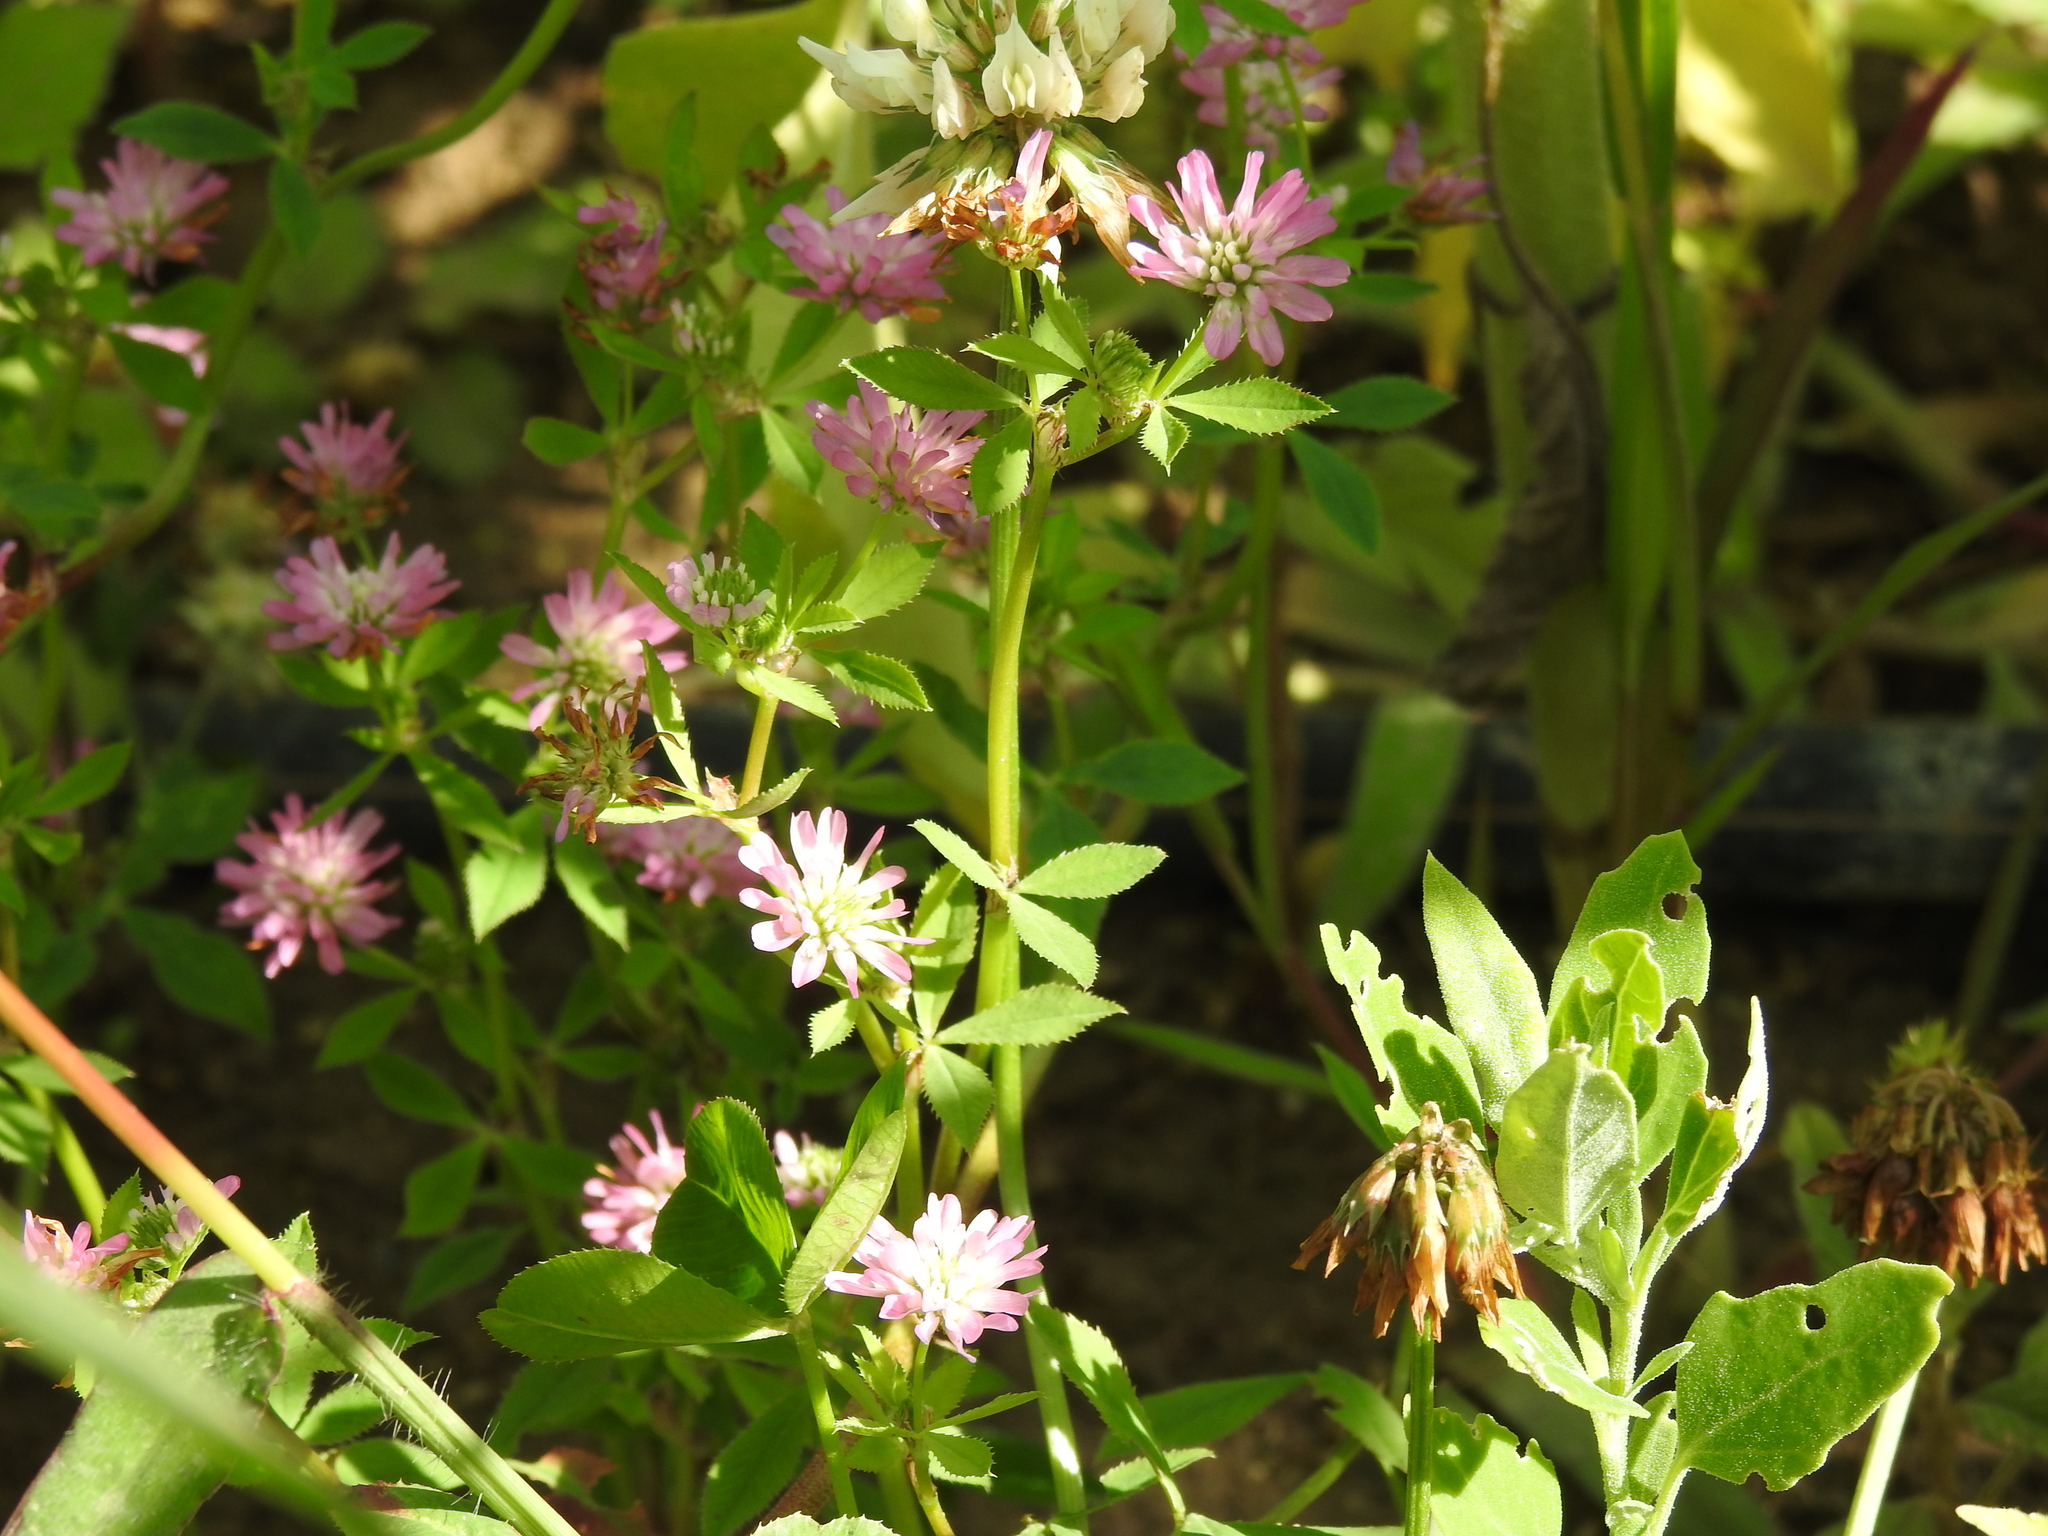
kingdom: Plantae
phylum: Tracheophyta
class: Magnoliopsida
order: Fabales
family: Fabaceae
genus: Trifolium
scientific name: Trifolium resupinatum
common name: Reversed clover
